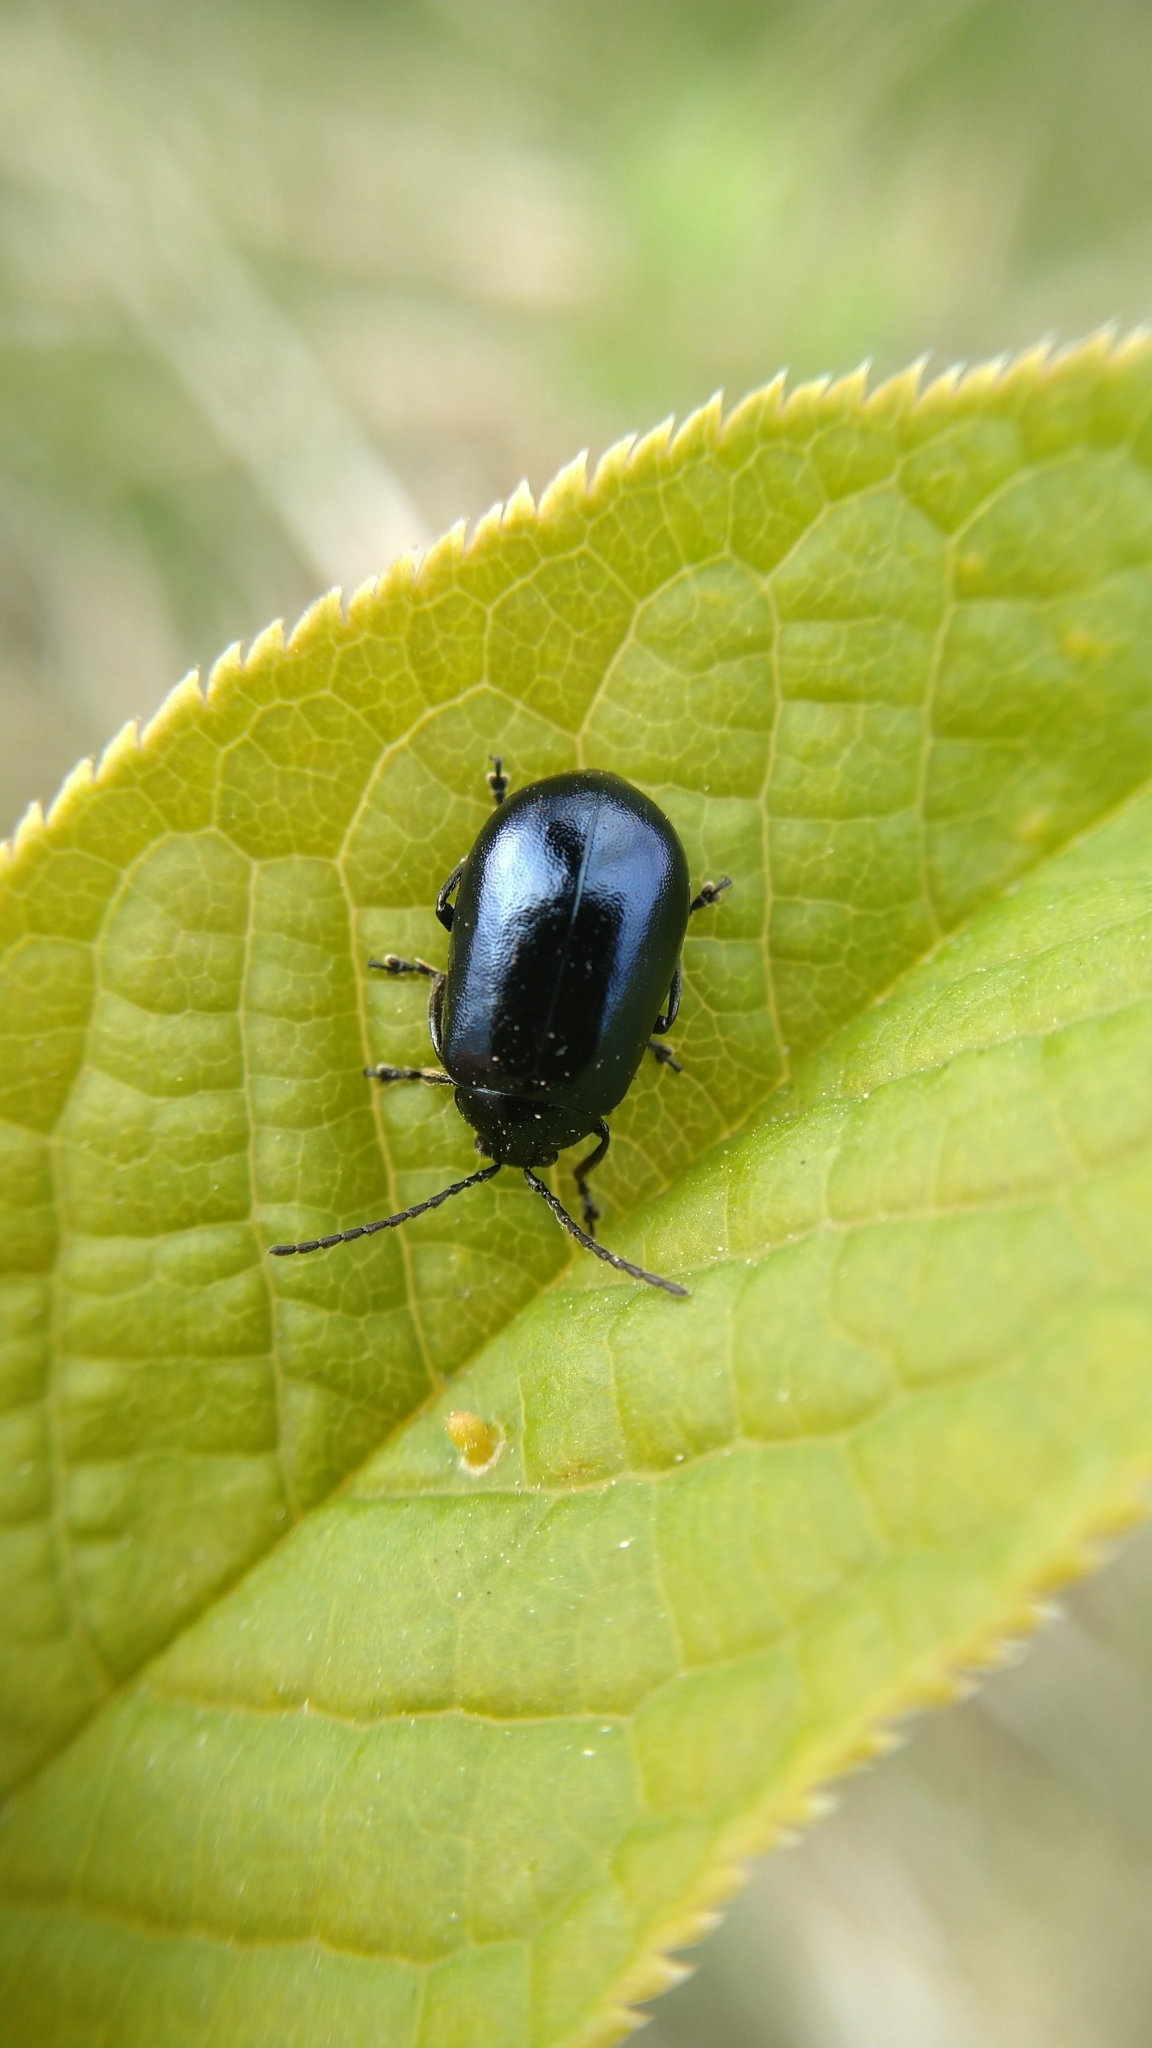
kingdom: Animalia
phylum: Arthropoda
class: Insecta
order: Coleoptera
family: Chrysomelidae
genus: Agelastica
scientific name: Agelastica alni
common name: Alder leaf beetle
